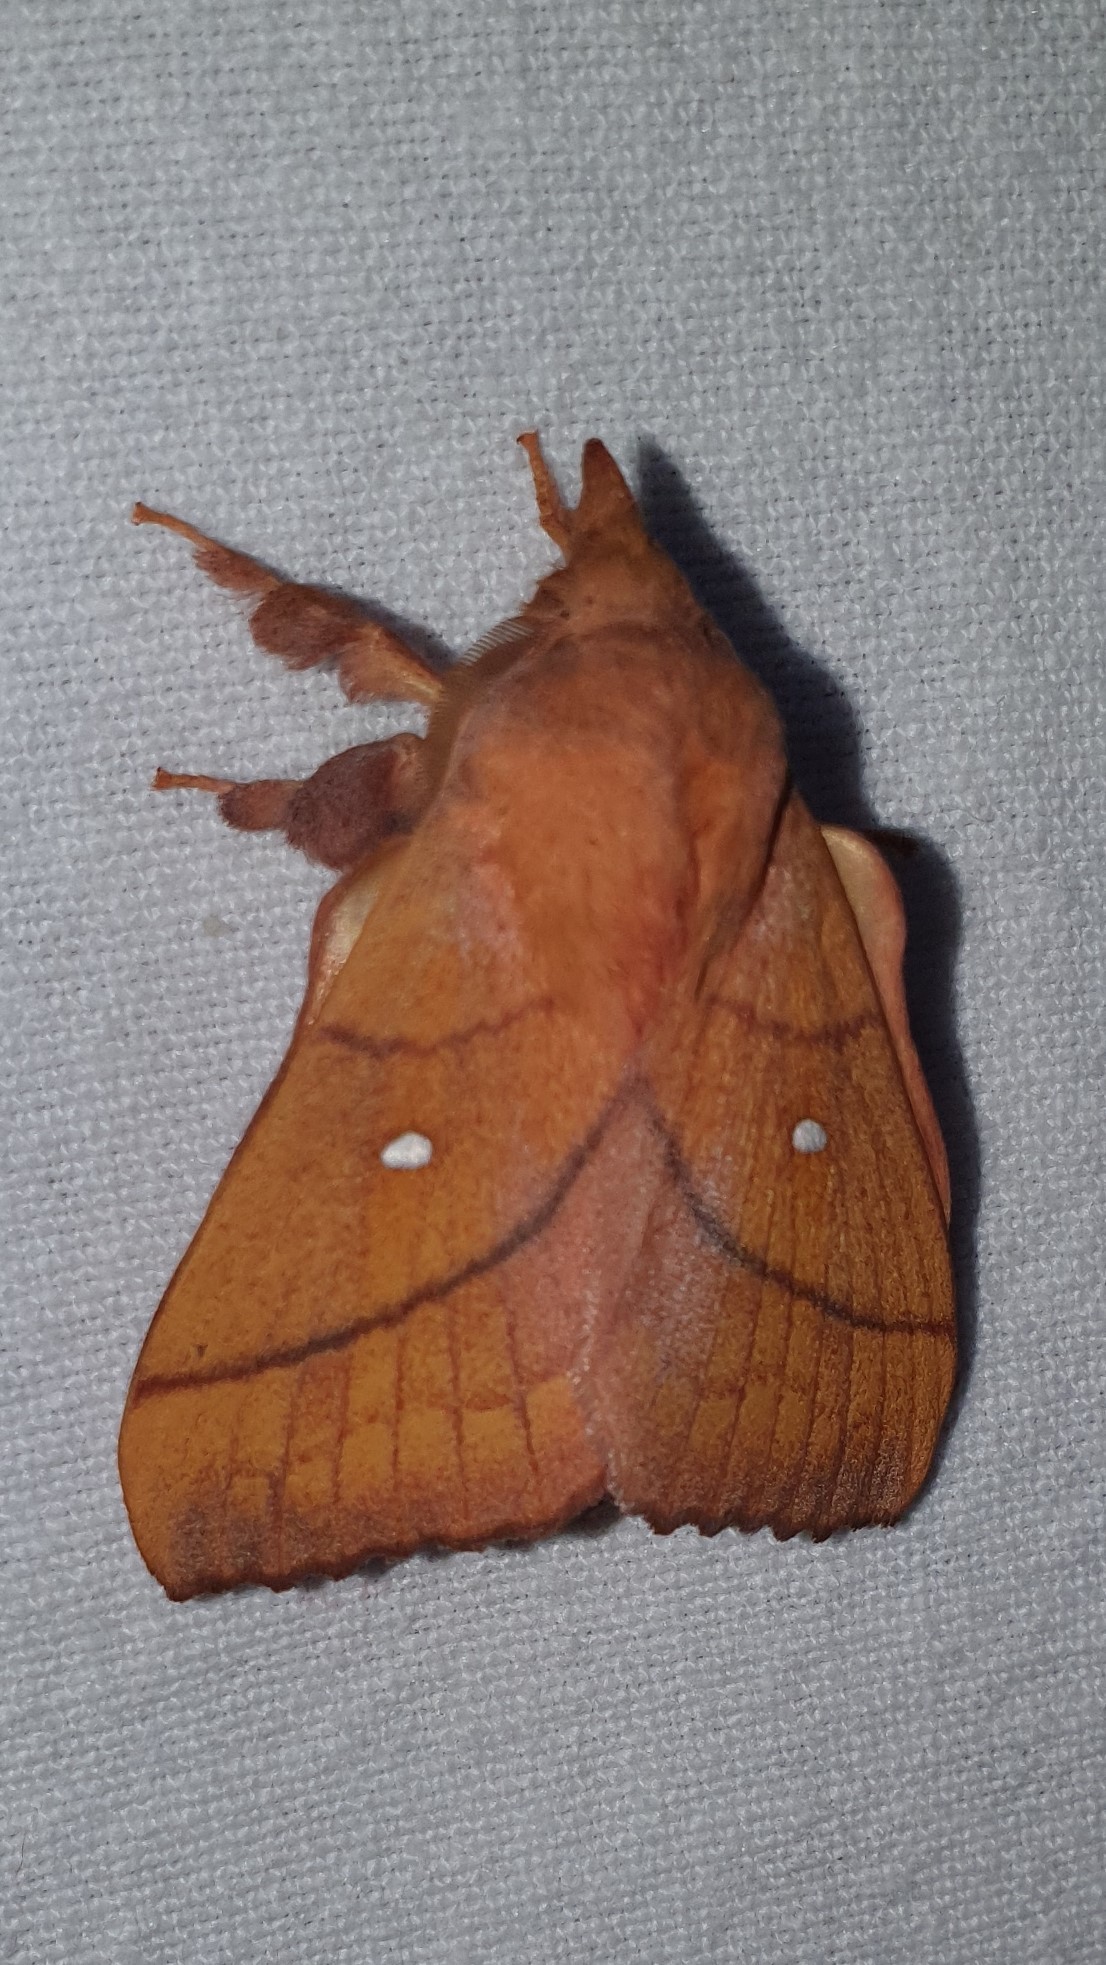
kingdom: Animalia
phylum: Arthropoda
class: Insecta
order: Lepidoptera
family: Lasiocampidae
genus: Odonestis
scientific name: Odonestis pruni
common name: Plum lappet
